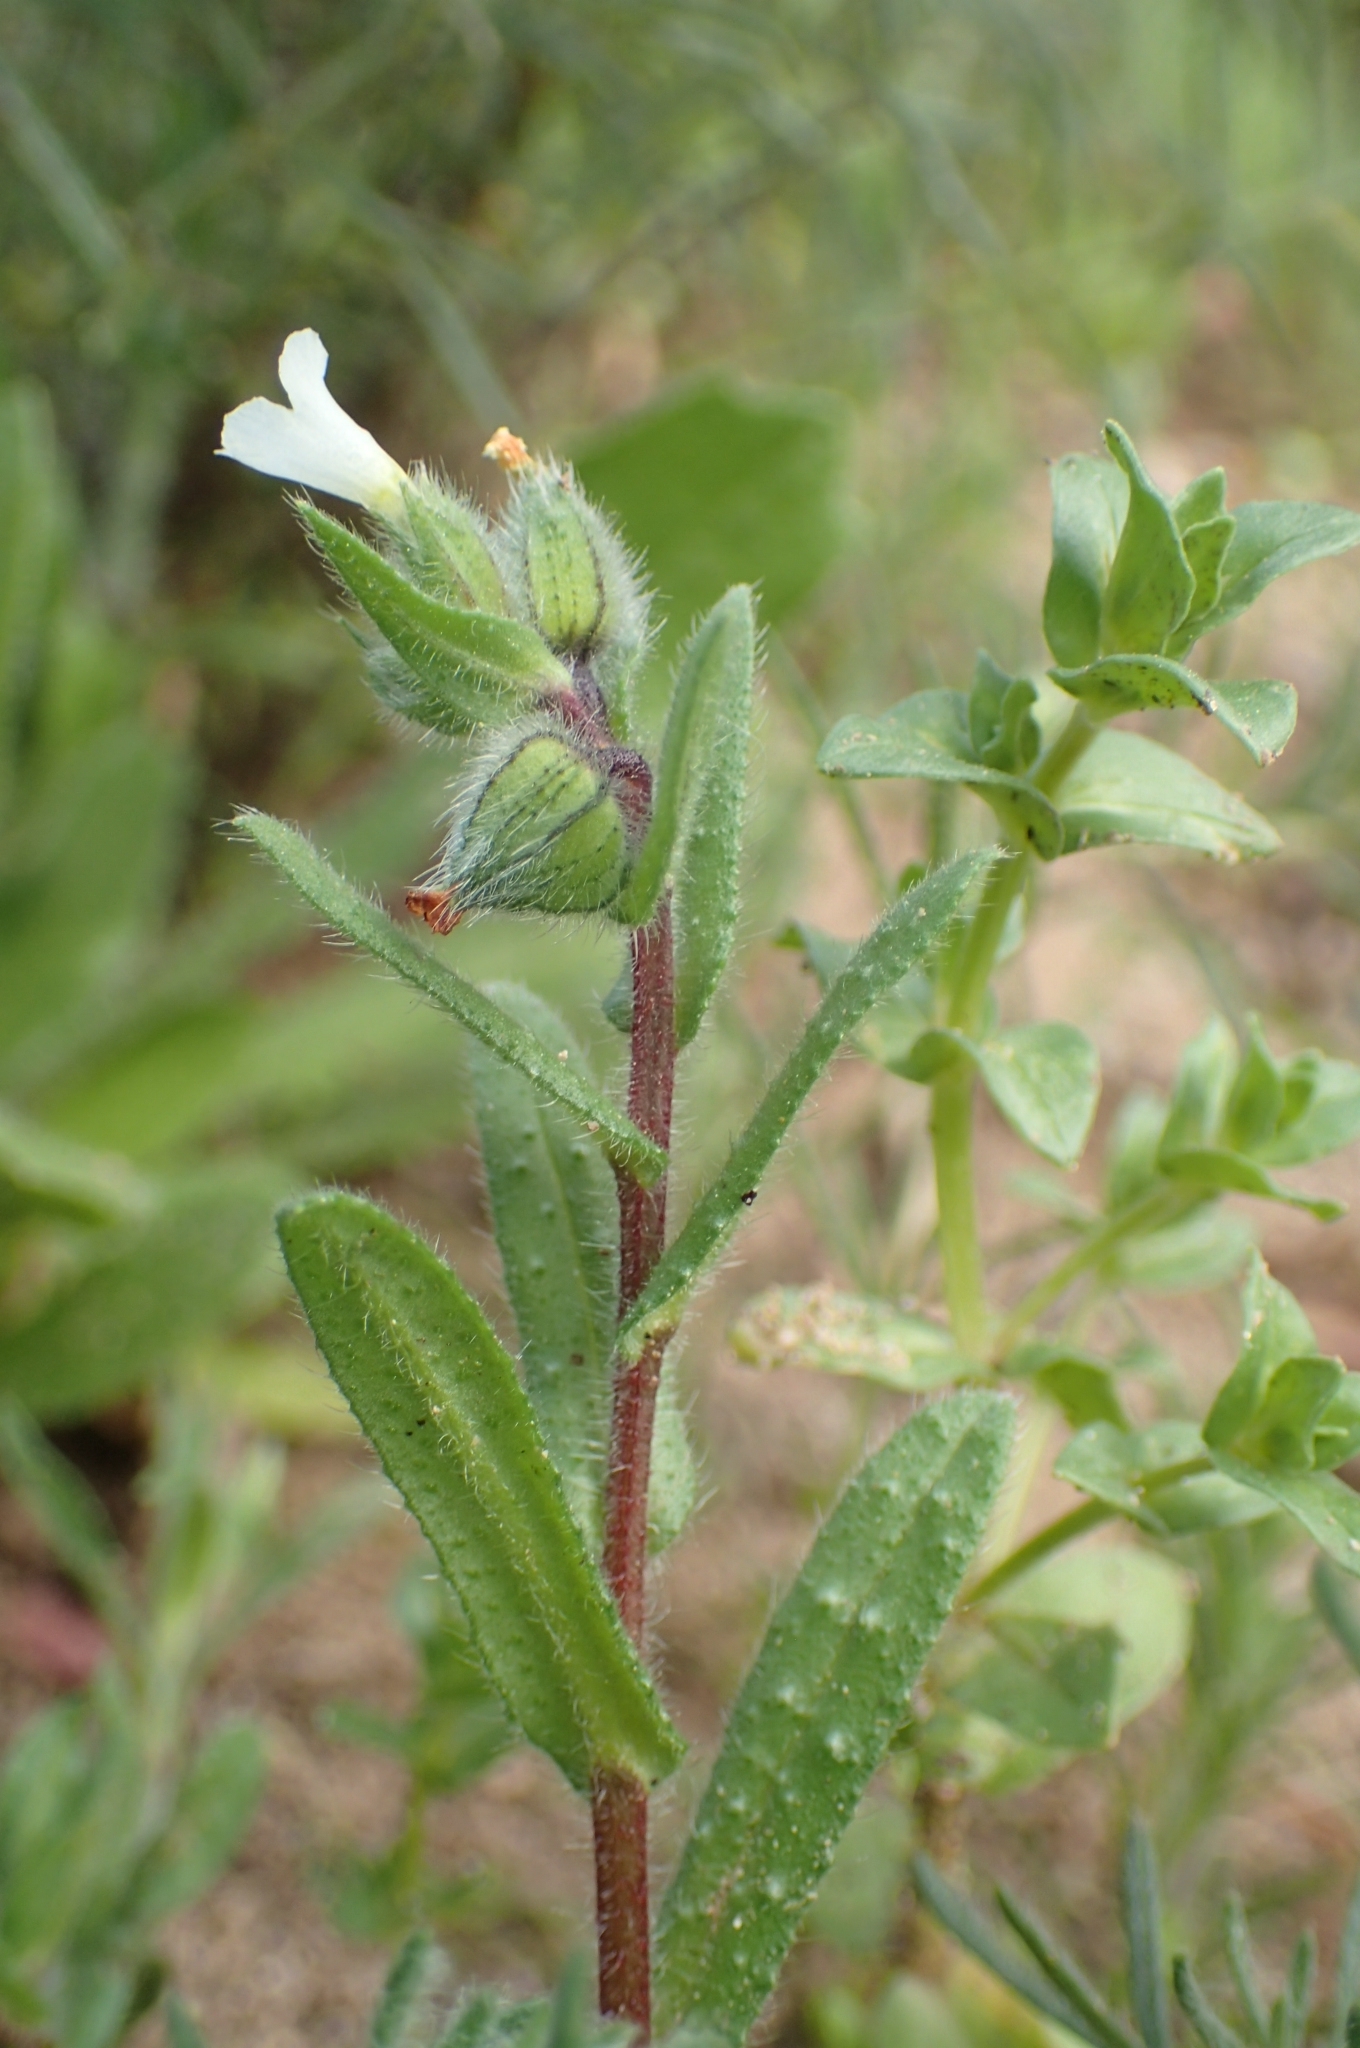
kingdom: Plantae
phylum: Tracheophyta
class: Magnoliopsida
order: Boraginales
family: Boraginaceae
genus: Nonea
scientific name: Nonea echioides
